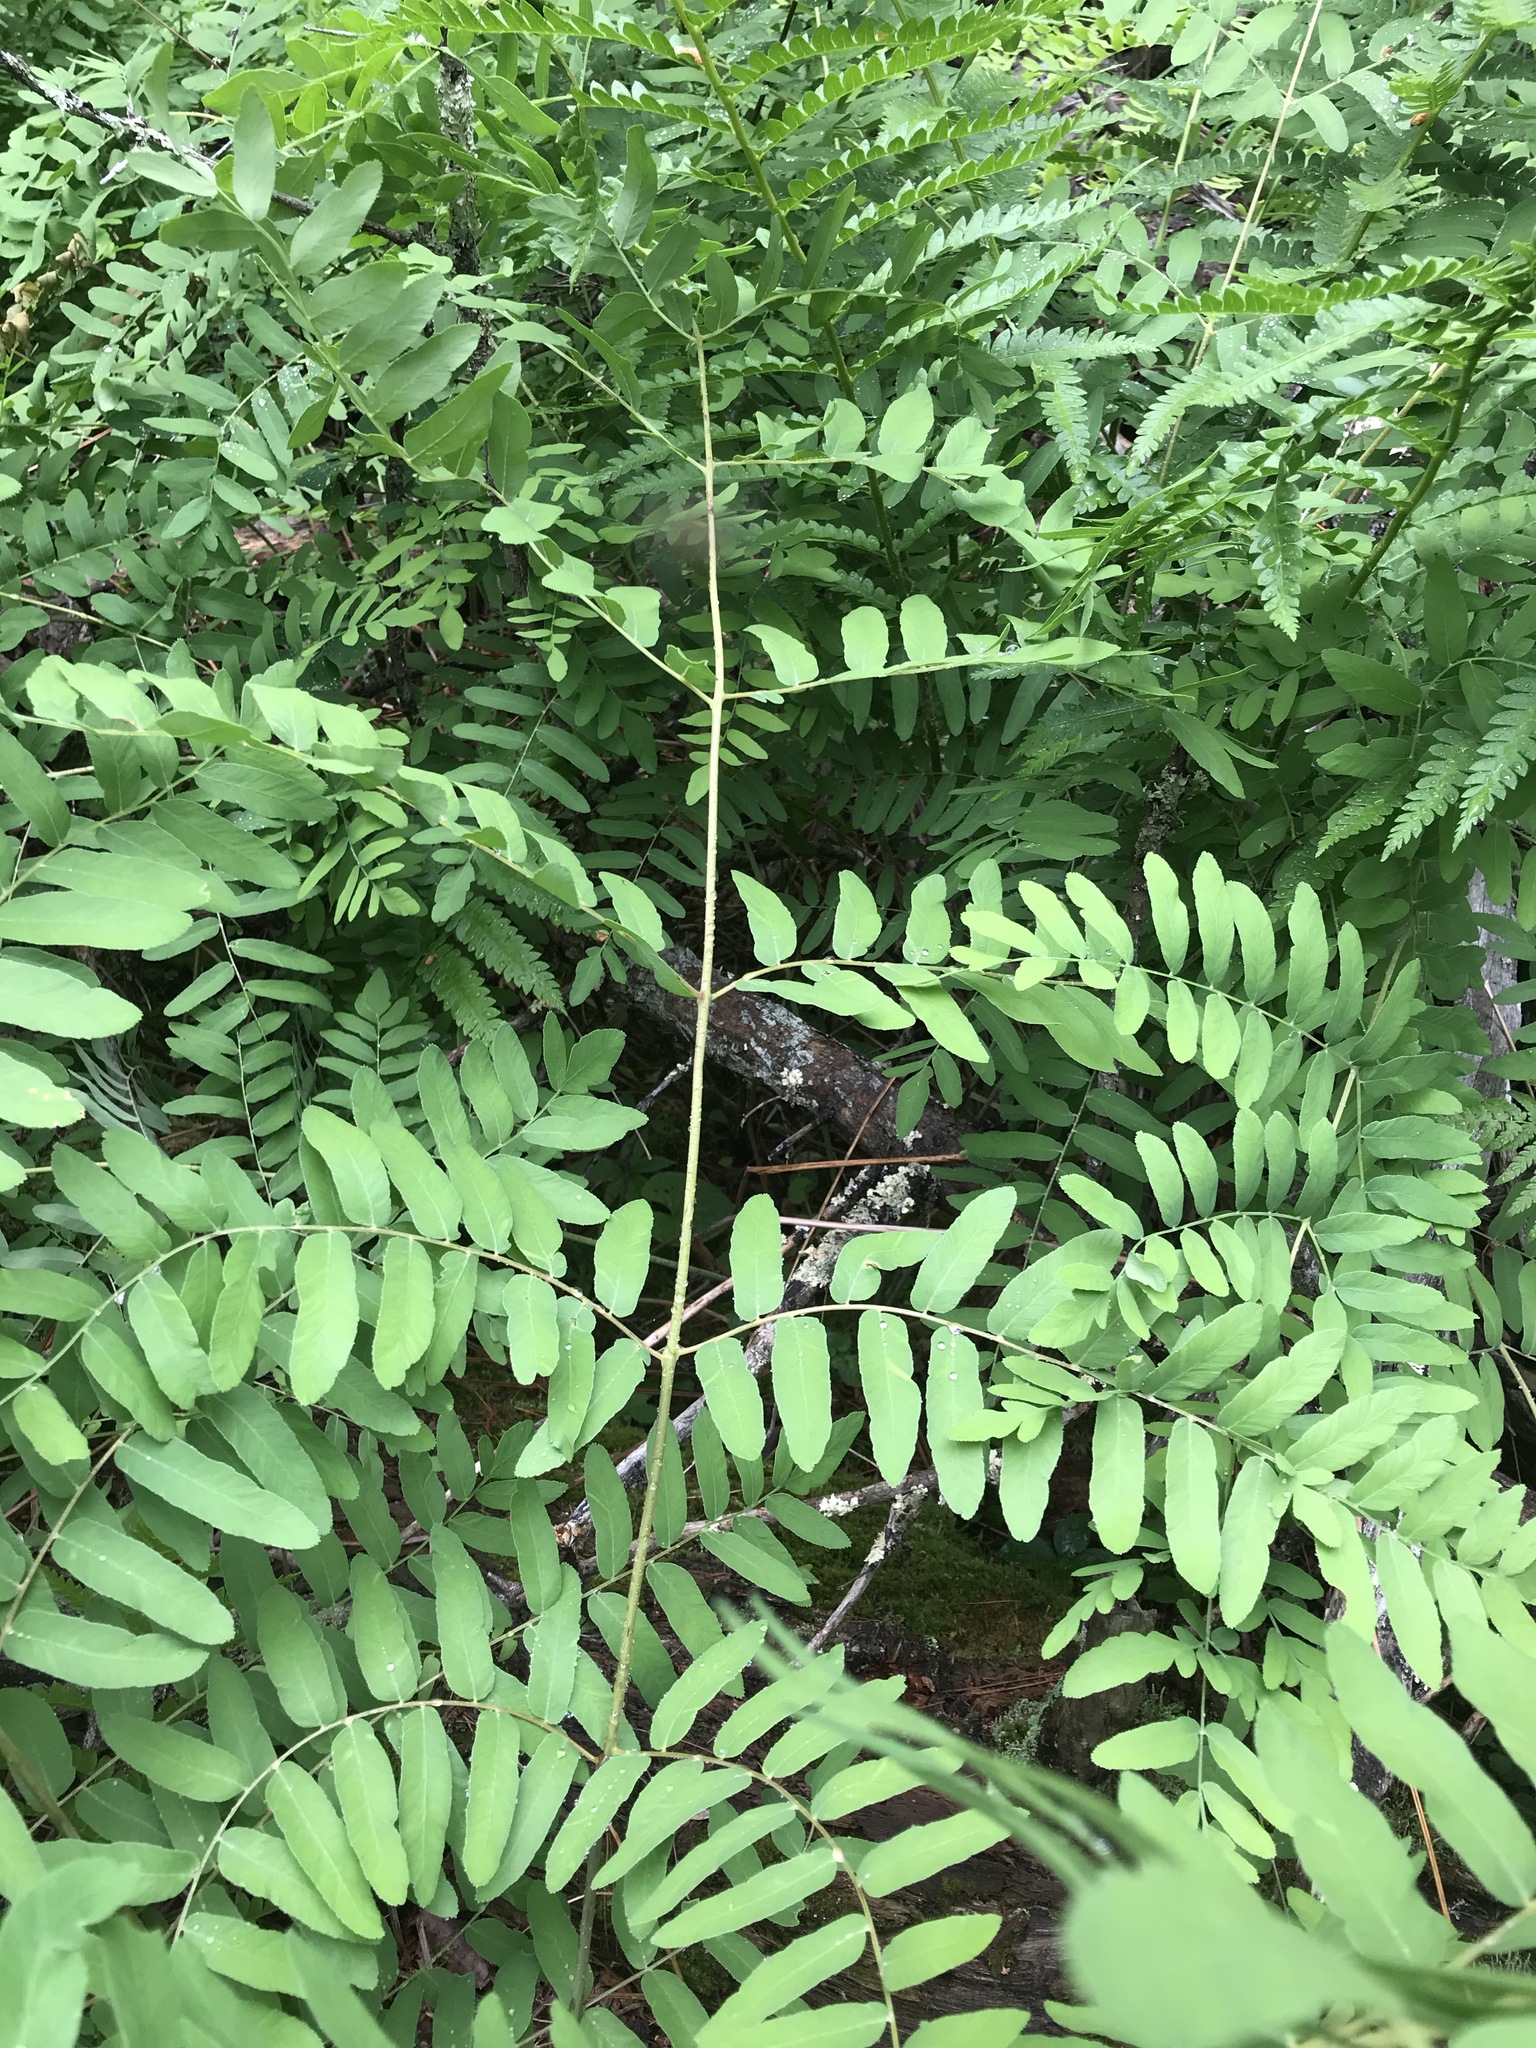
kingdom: Plantae
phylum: Tracheophyta
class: Polypodiopsida
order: Osmundales
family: Osmundaceae
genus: Osmunda
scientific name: Osmunda spectabilis
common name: American royal fern
